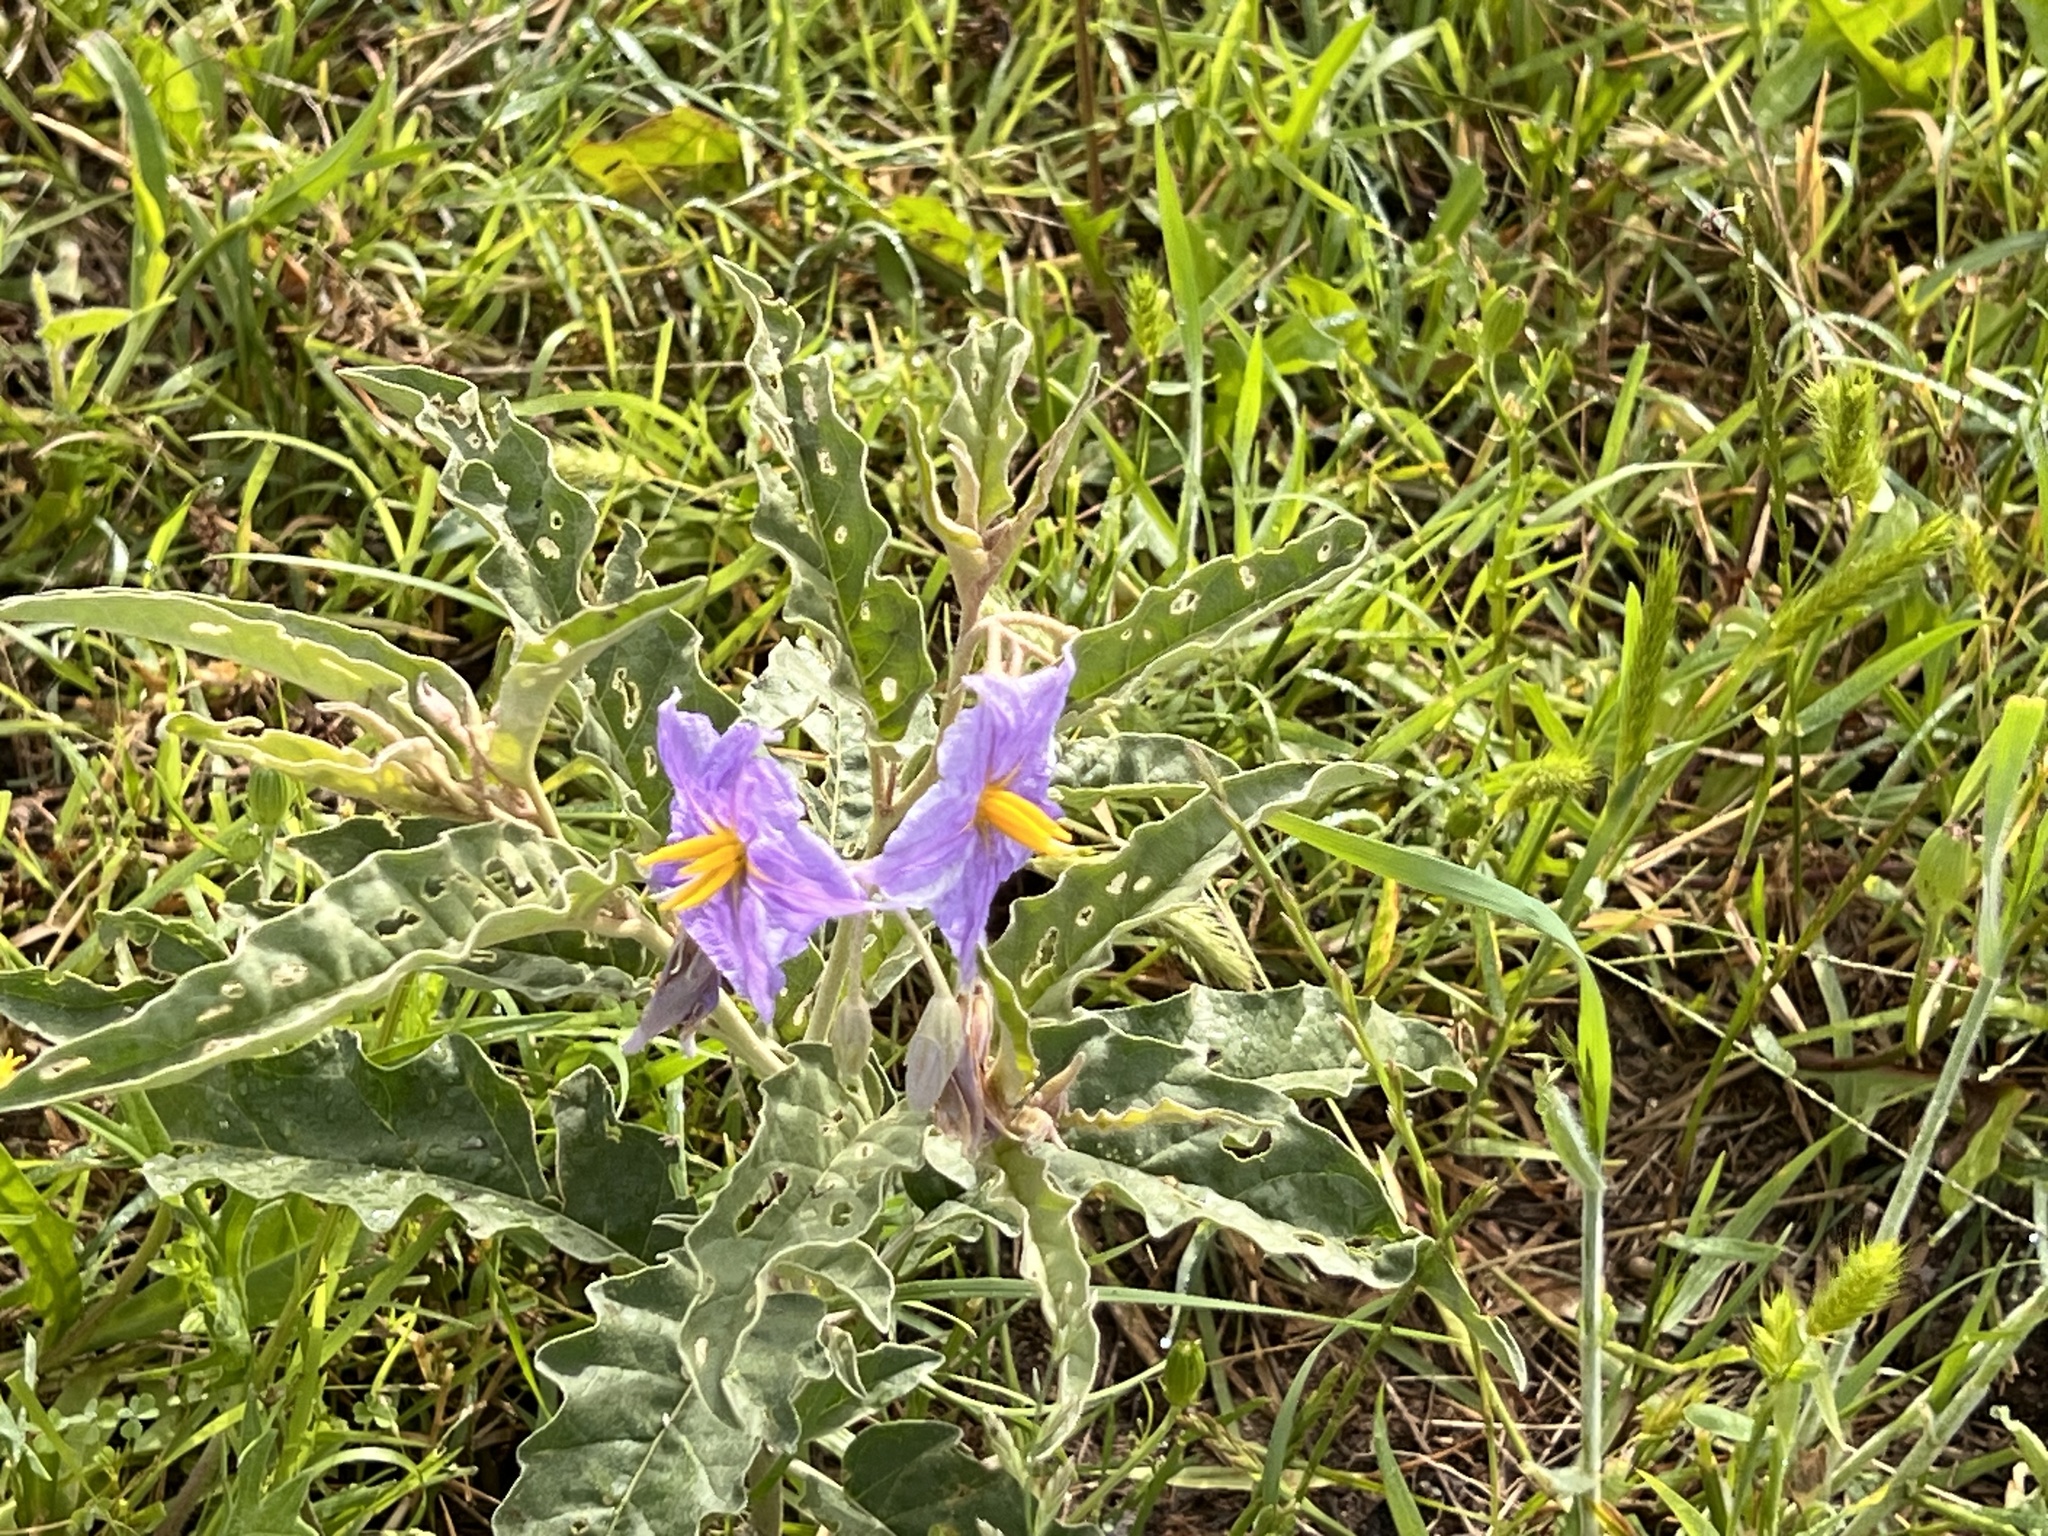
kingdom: Plantae
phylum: Tracheophyta
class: Magnoliopsida
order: Solanales
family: Solanaceae
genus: Solanum
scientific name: Solanum elaeagnifolium
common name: Silverleaf nightshade
